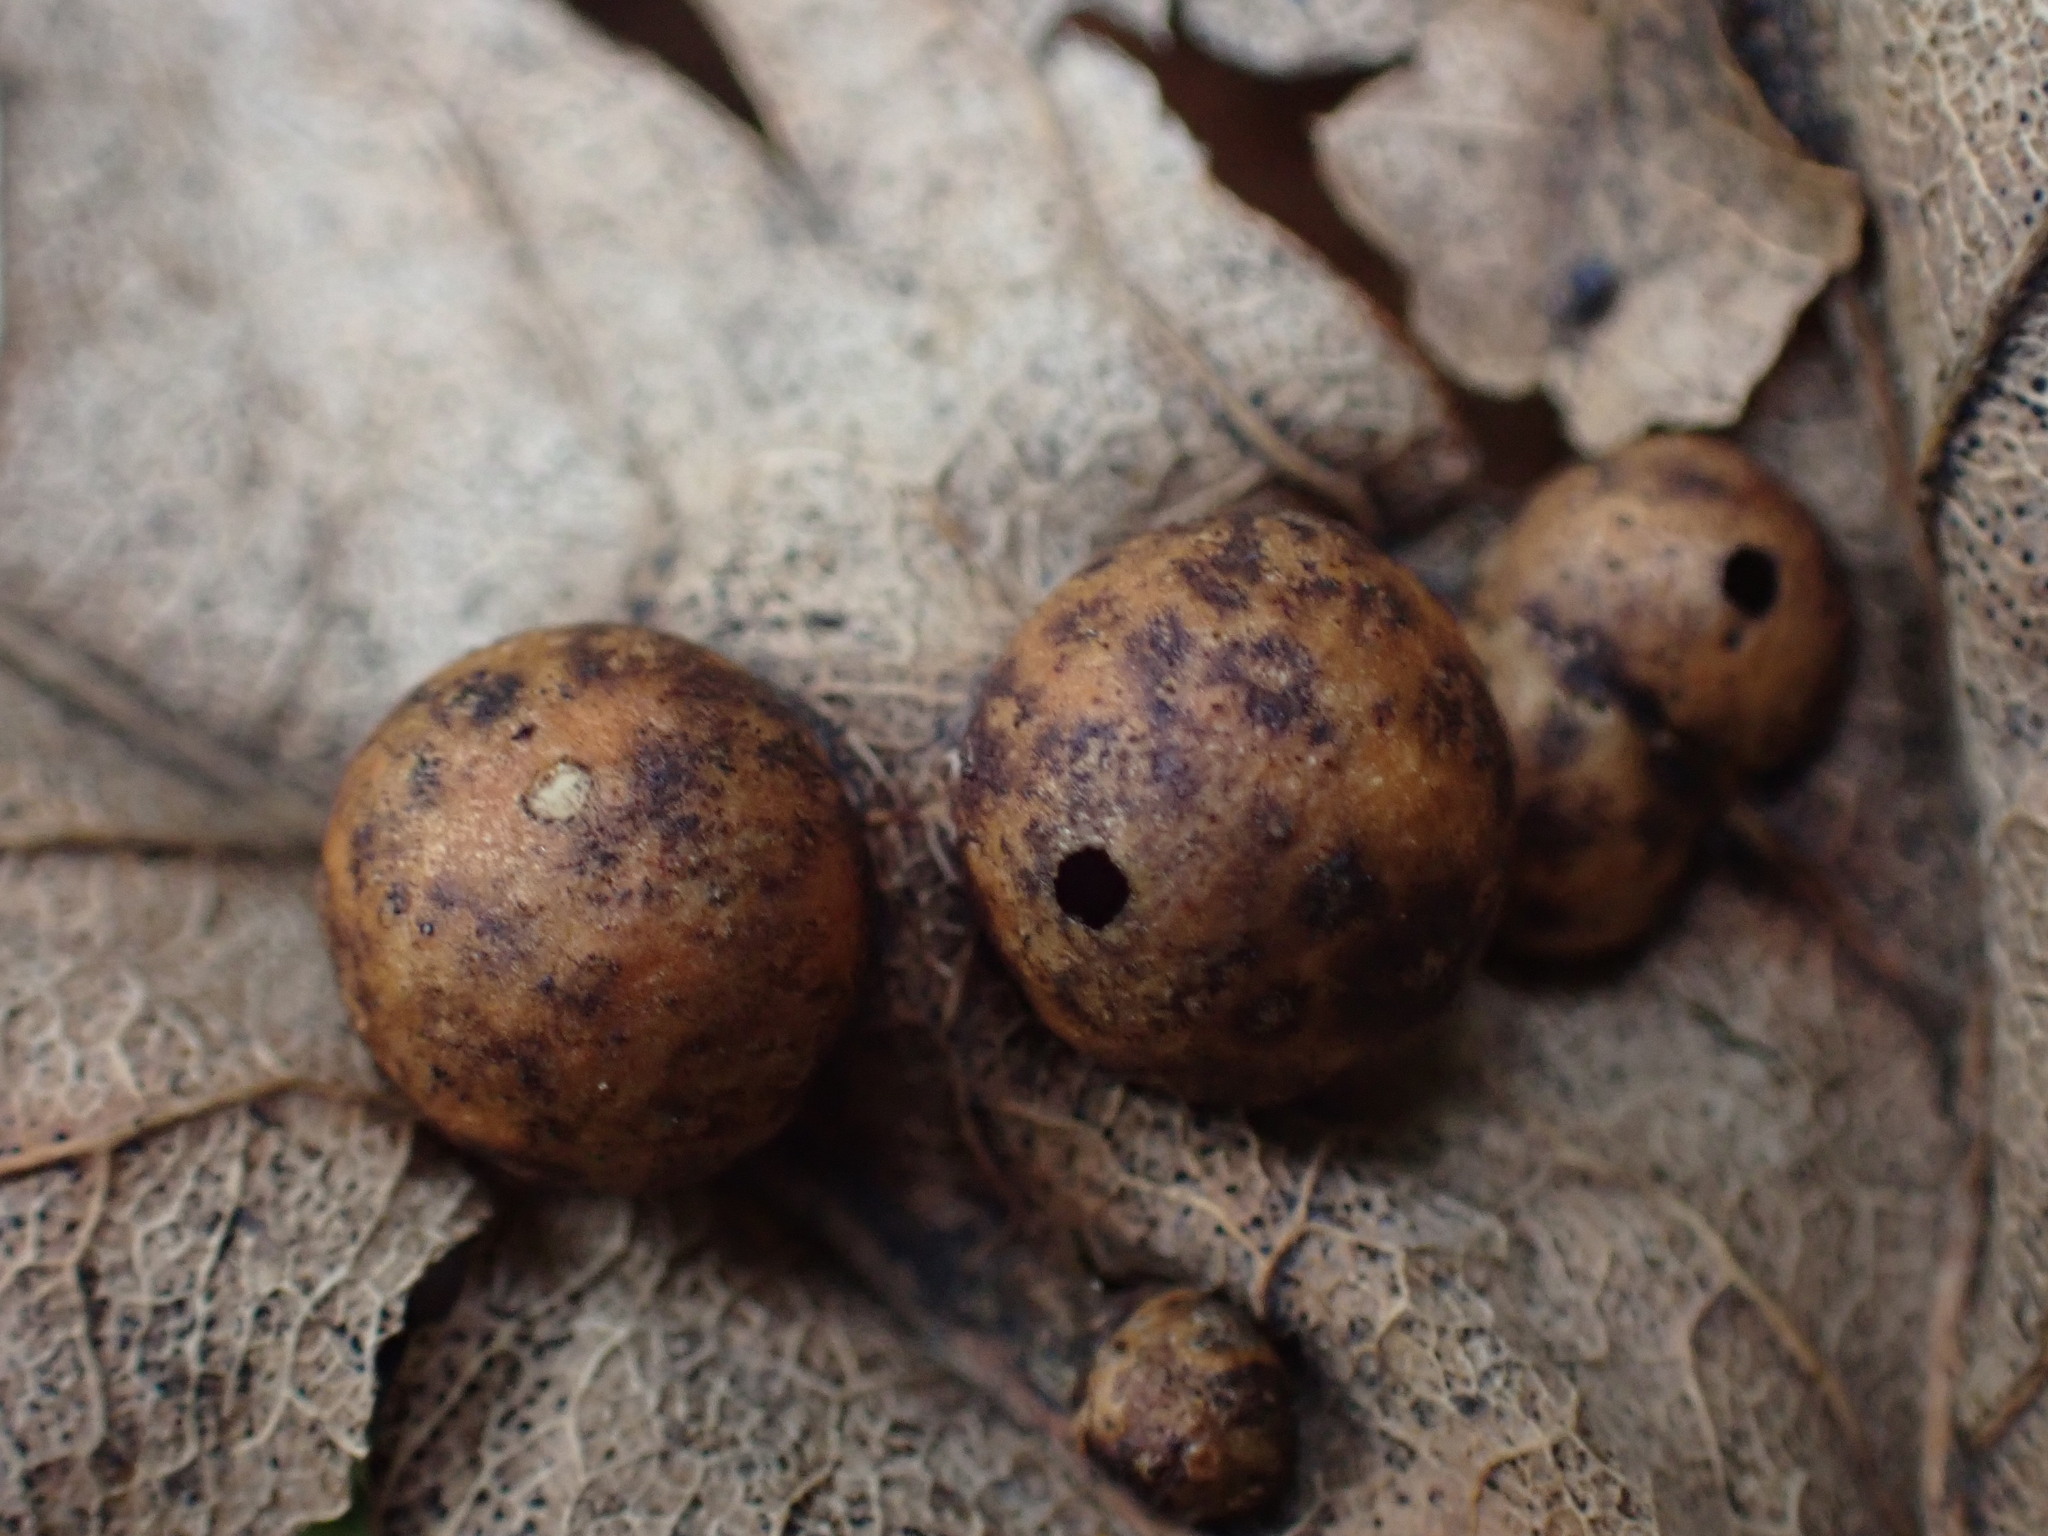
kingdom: Animalia
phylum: Arthropoda
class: Insecta
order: Hymenoptera
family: Cynipidae
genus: Pediaspis
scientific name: Pediaspis aceris
